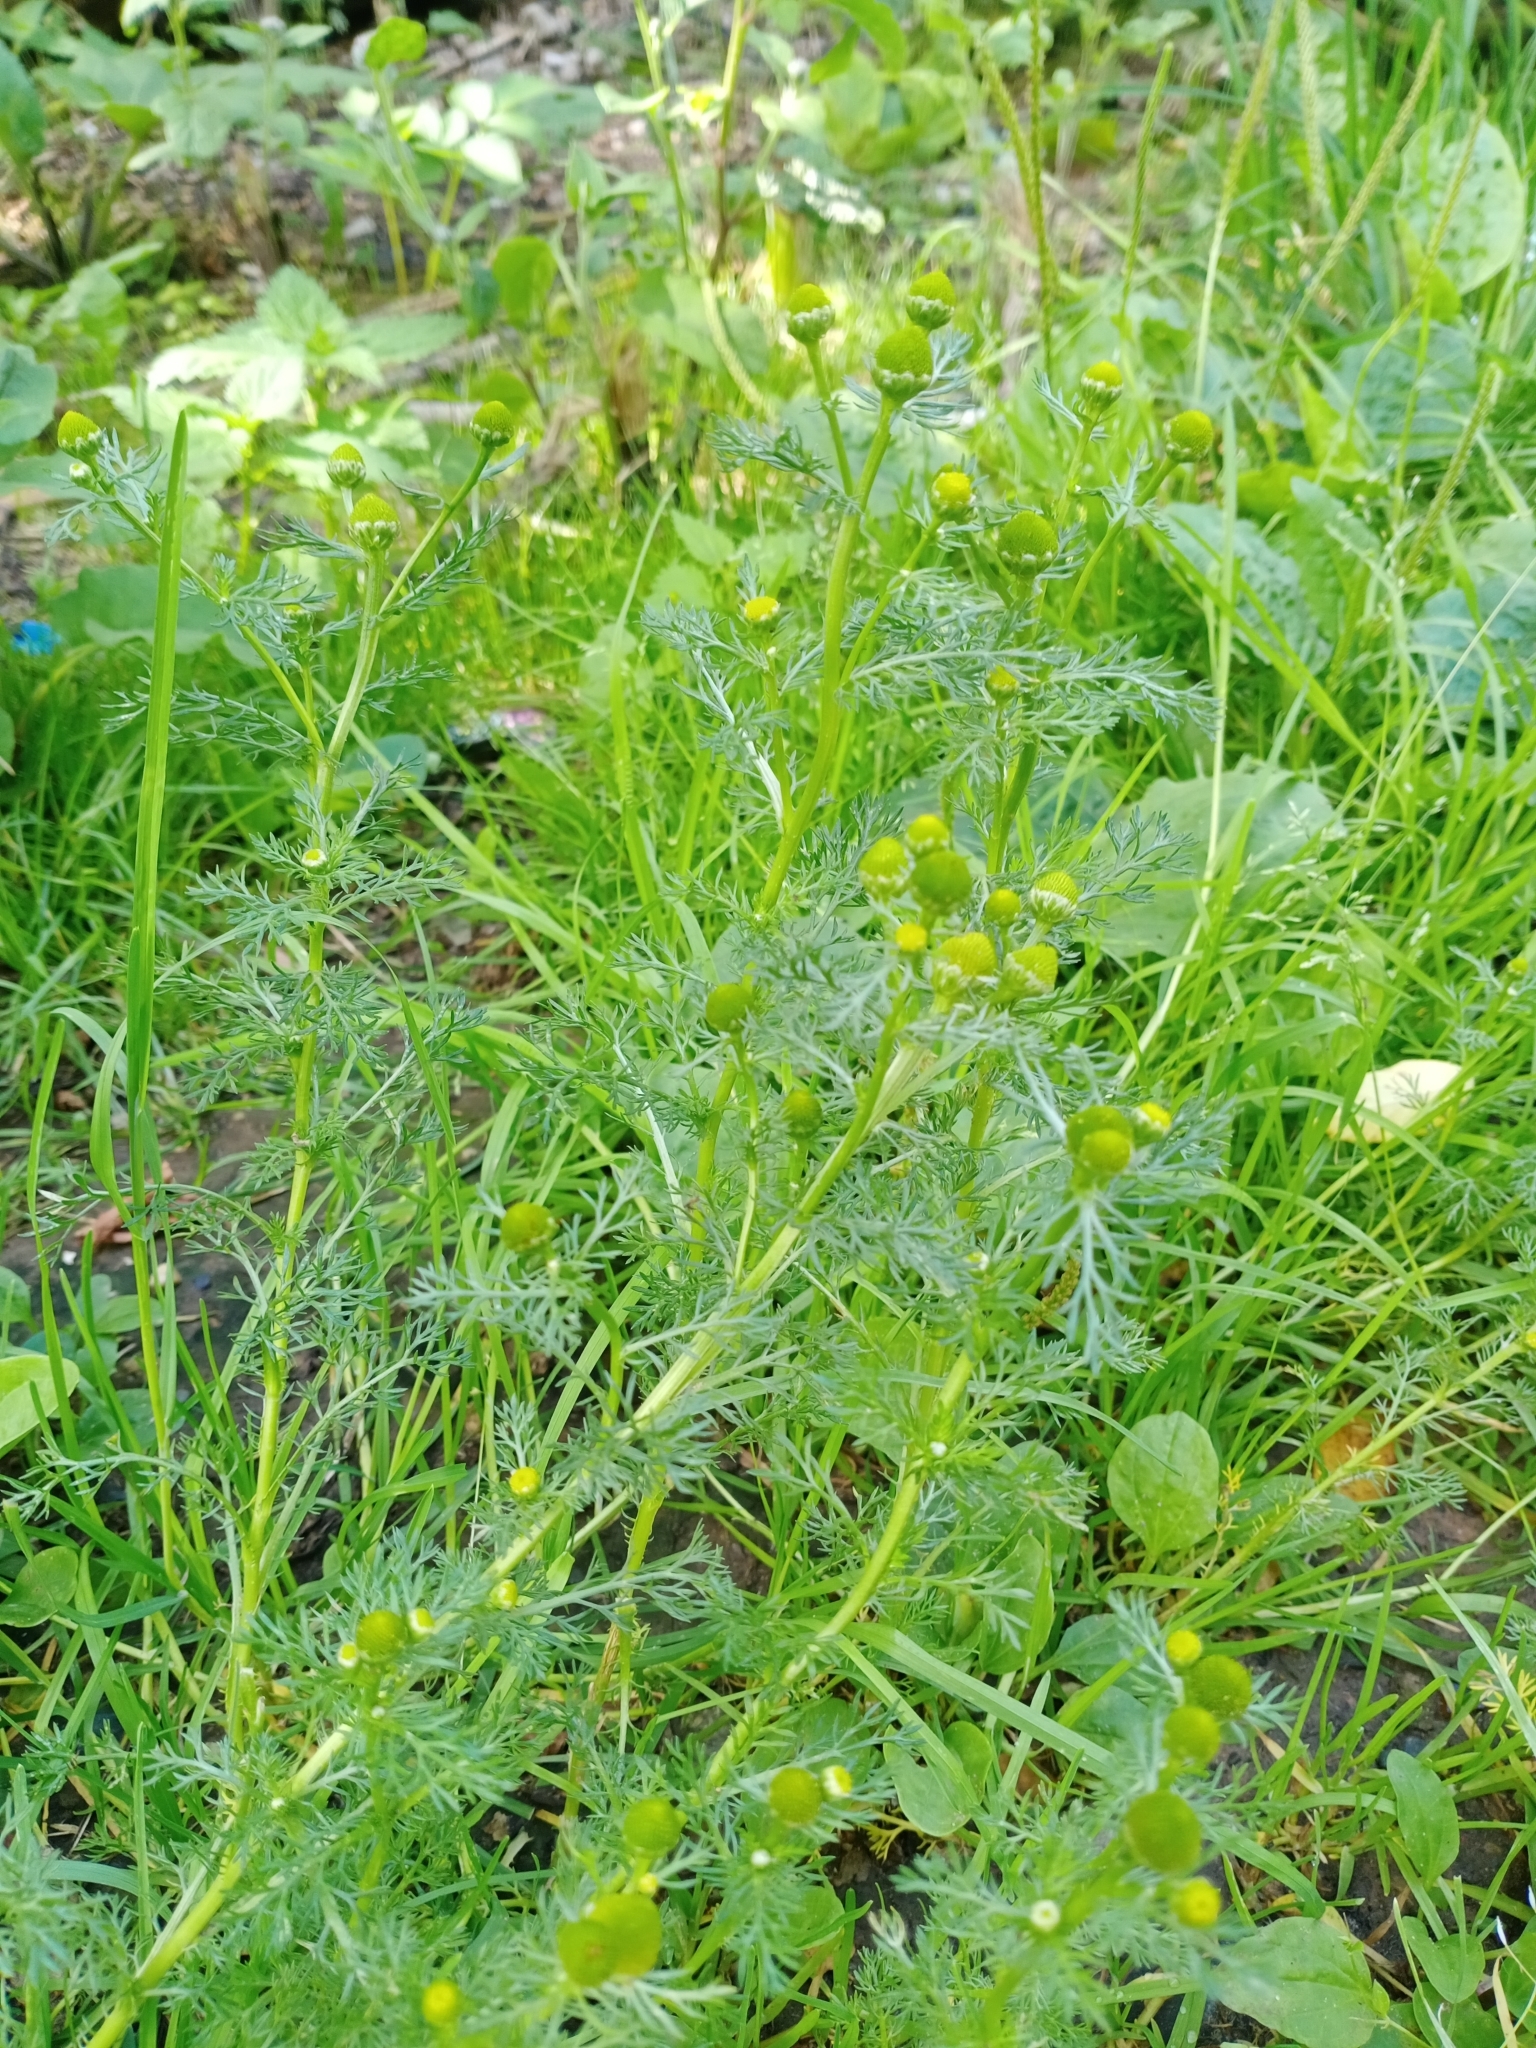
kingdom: Plantae
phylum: Tracheophyta
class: Magnoliopsida
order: Asterales
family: Asteraceae
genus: Matricaria
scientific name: Matricaria discoidea
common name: Disc mayweed
